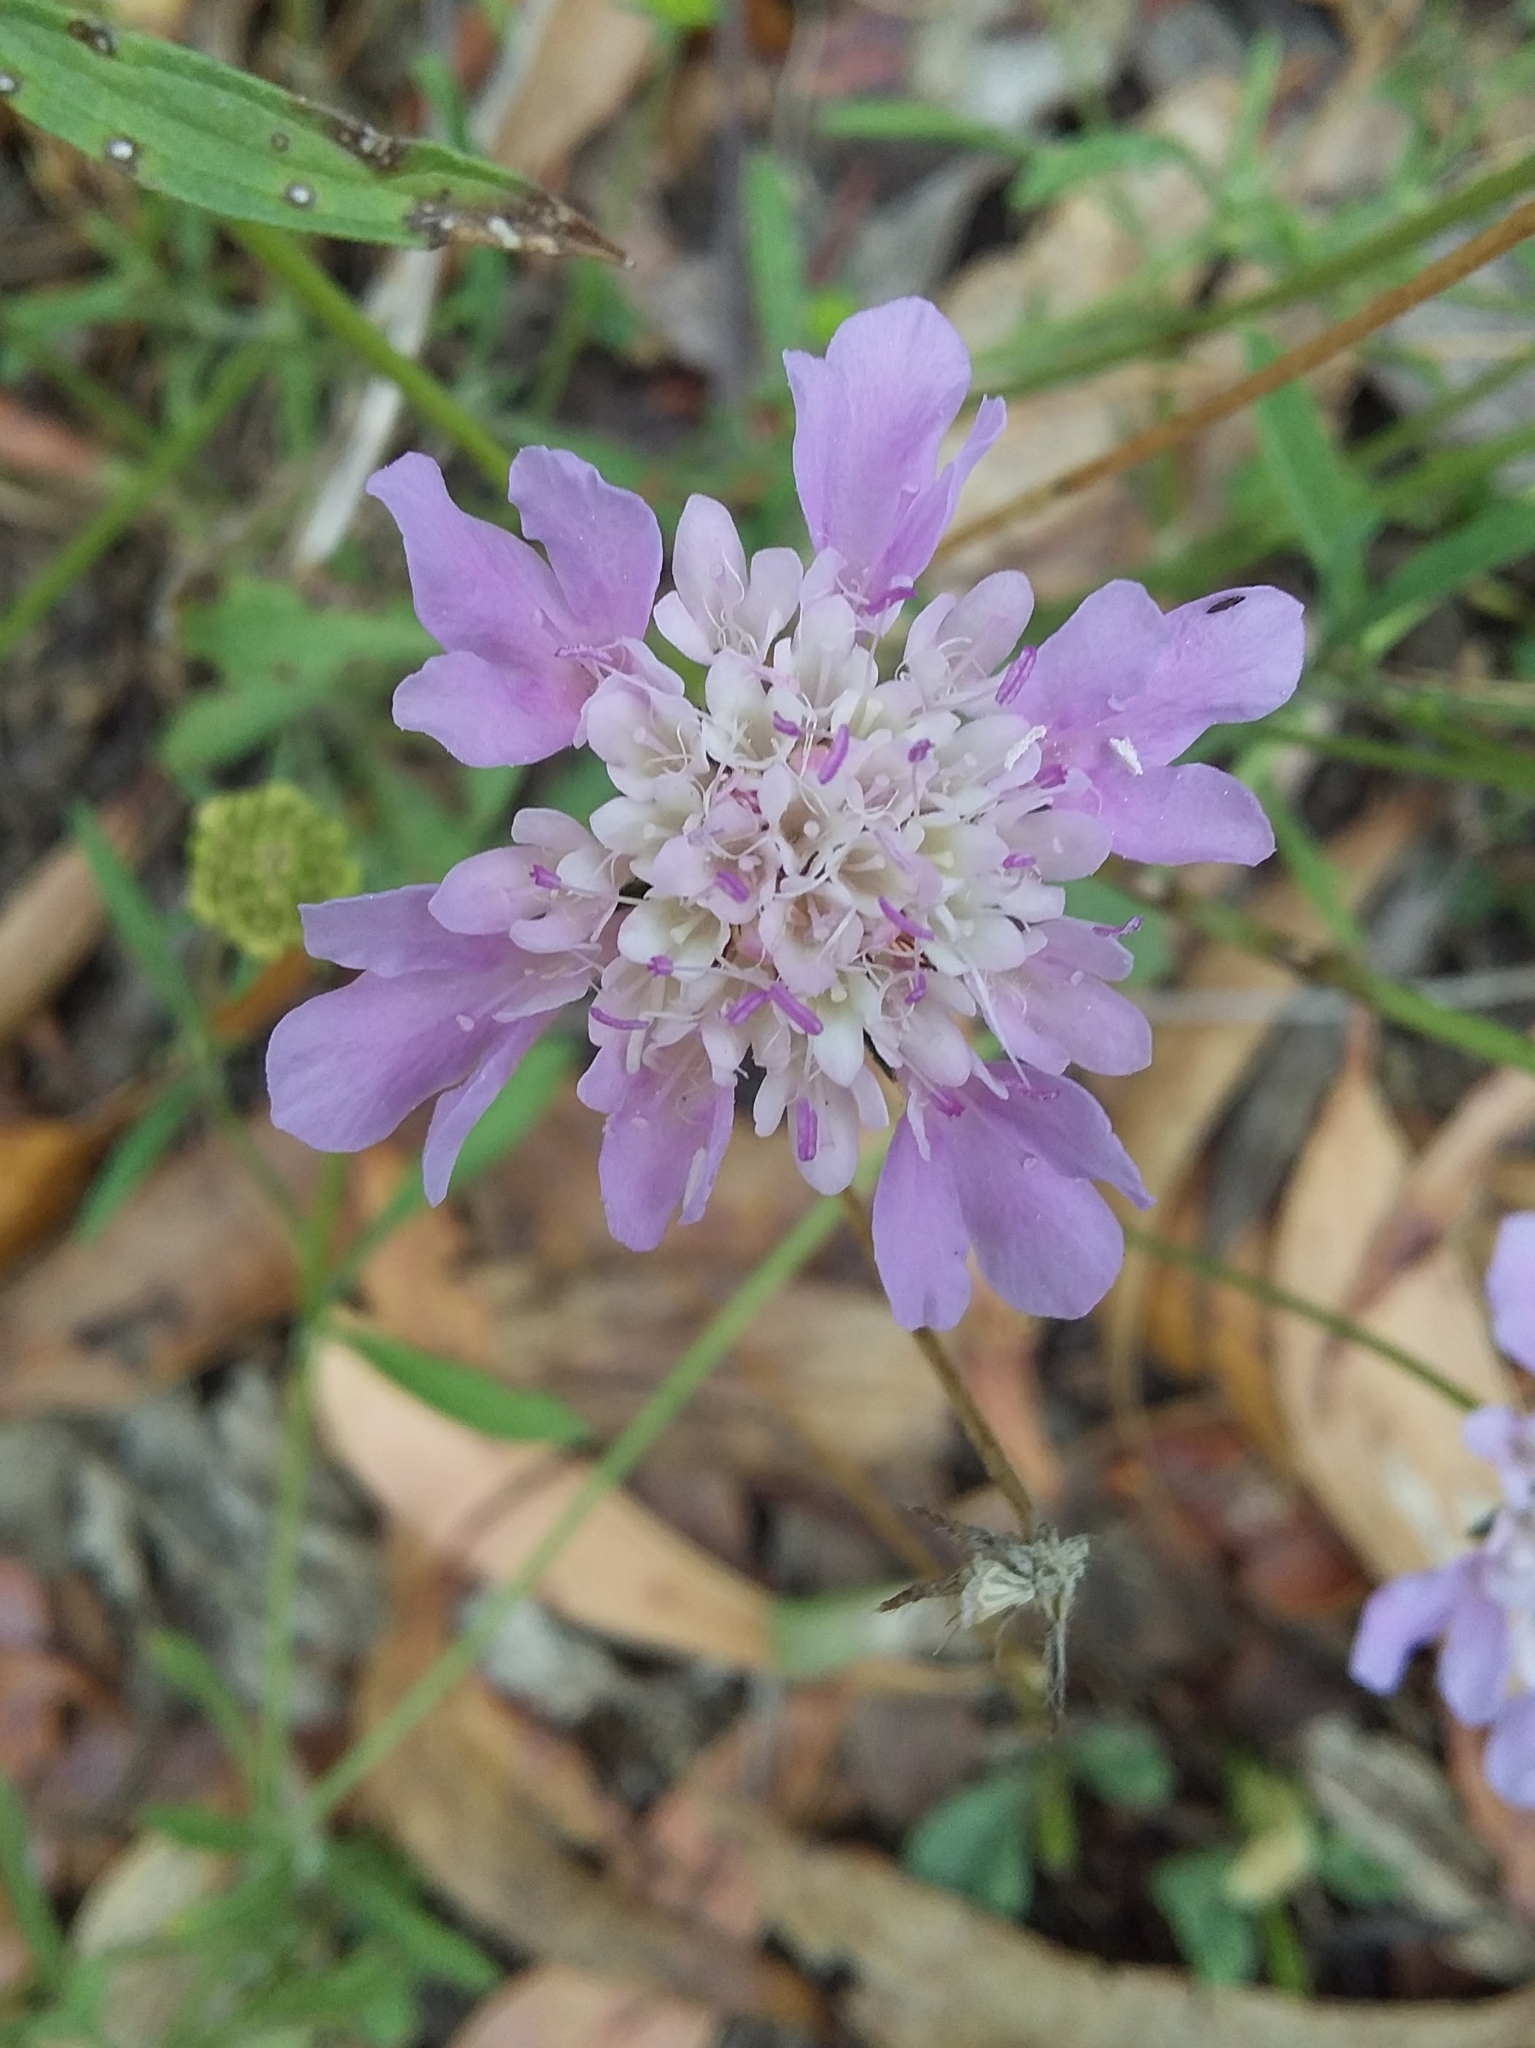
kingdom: Plantae
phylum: Tracheophyta
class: Magnoliopsida
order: Dipsacales
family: Caprifoliaceae
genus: Sixalix
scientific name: Sixalix atropurpurea
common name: Sweet scabious
